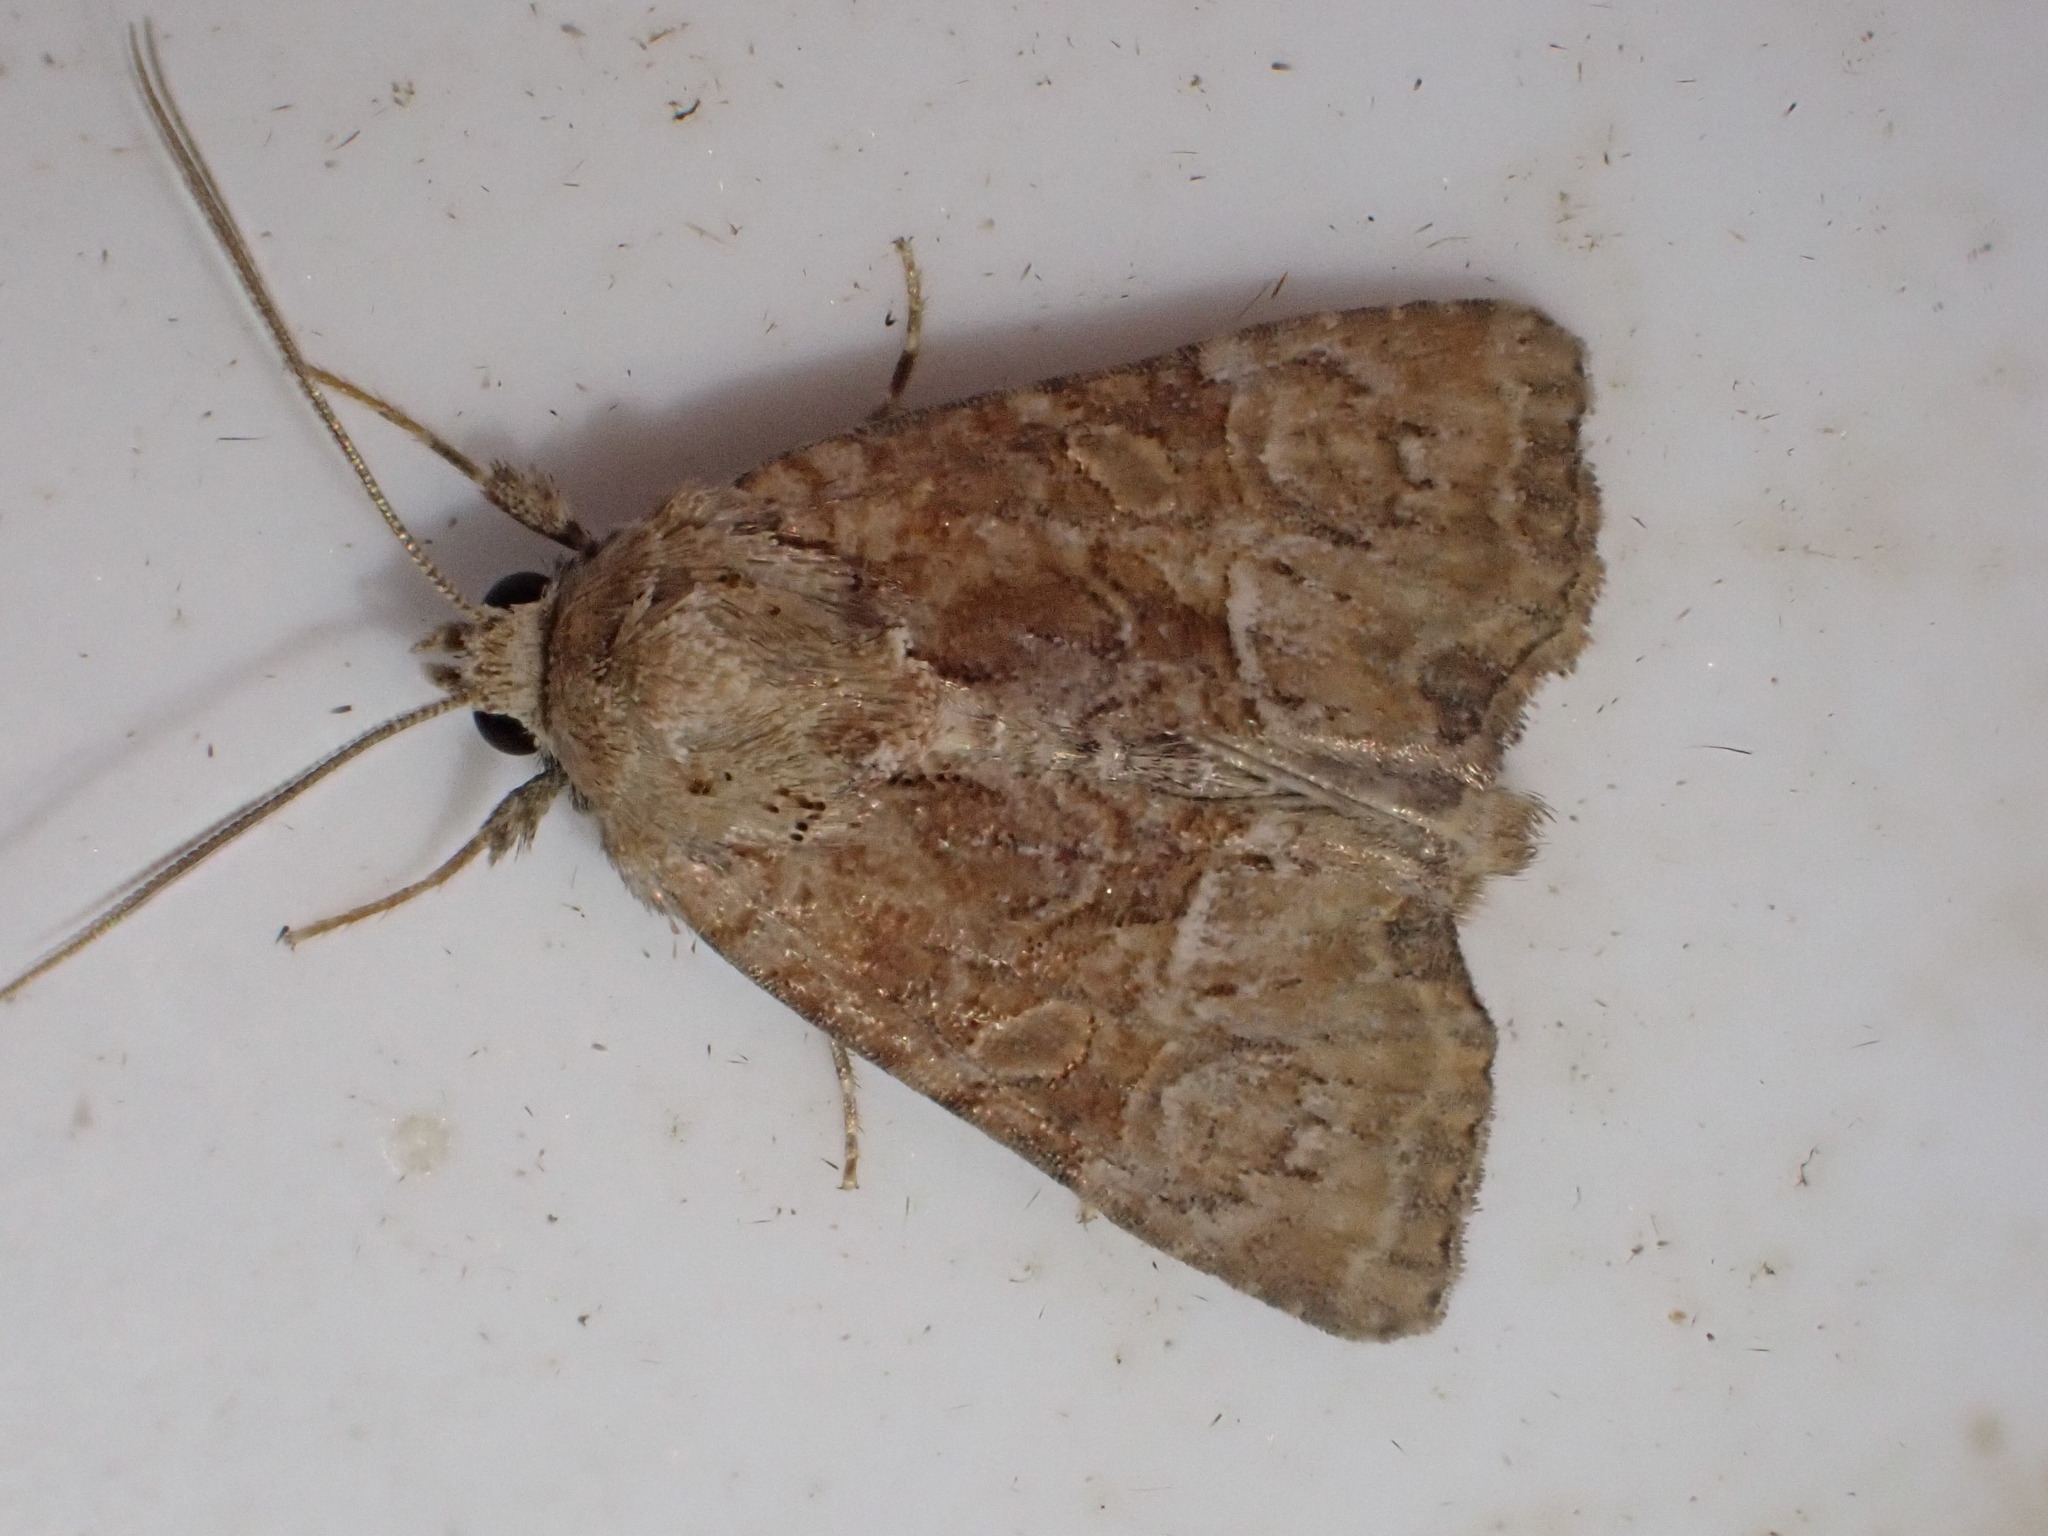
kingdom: Animalia
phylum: Arthropoda
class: Insecta
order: Lepidoptera
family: Noctuidae
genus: Mesoligia
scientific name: Mesoligia furuncula
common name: Cloaked minor
